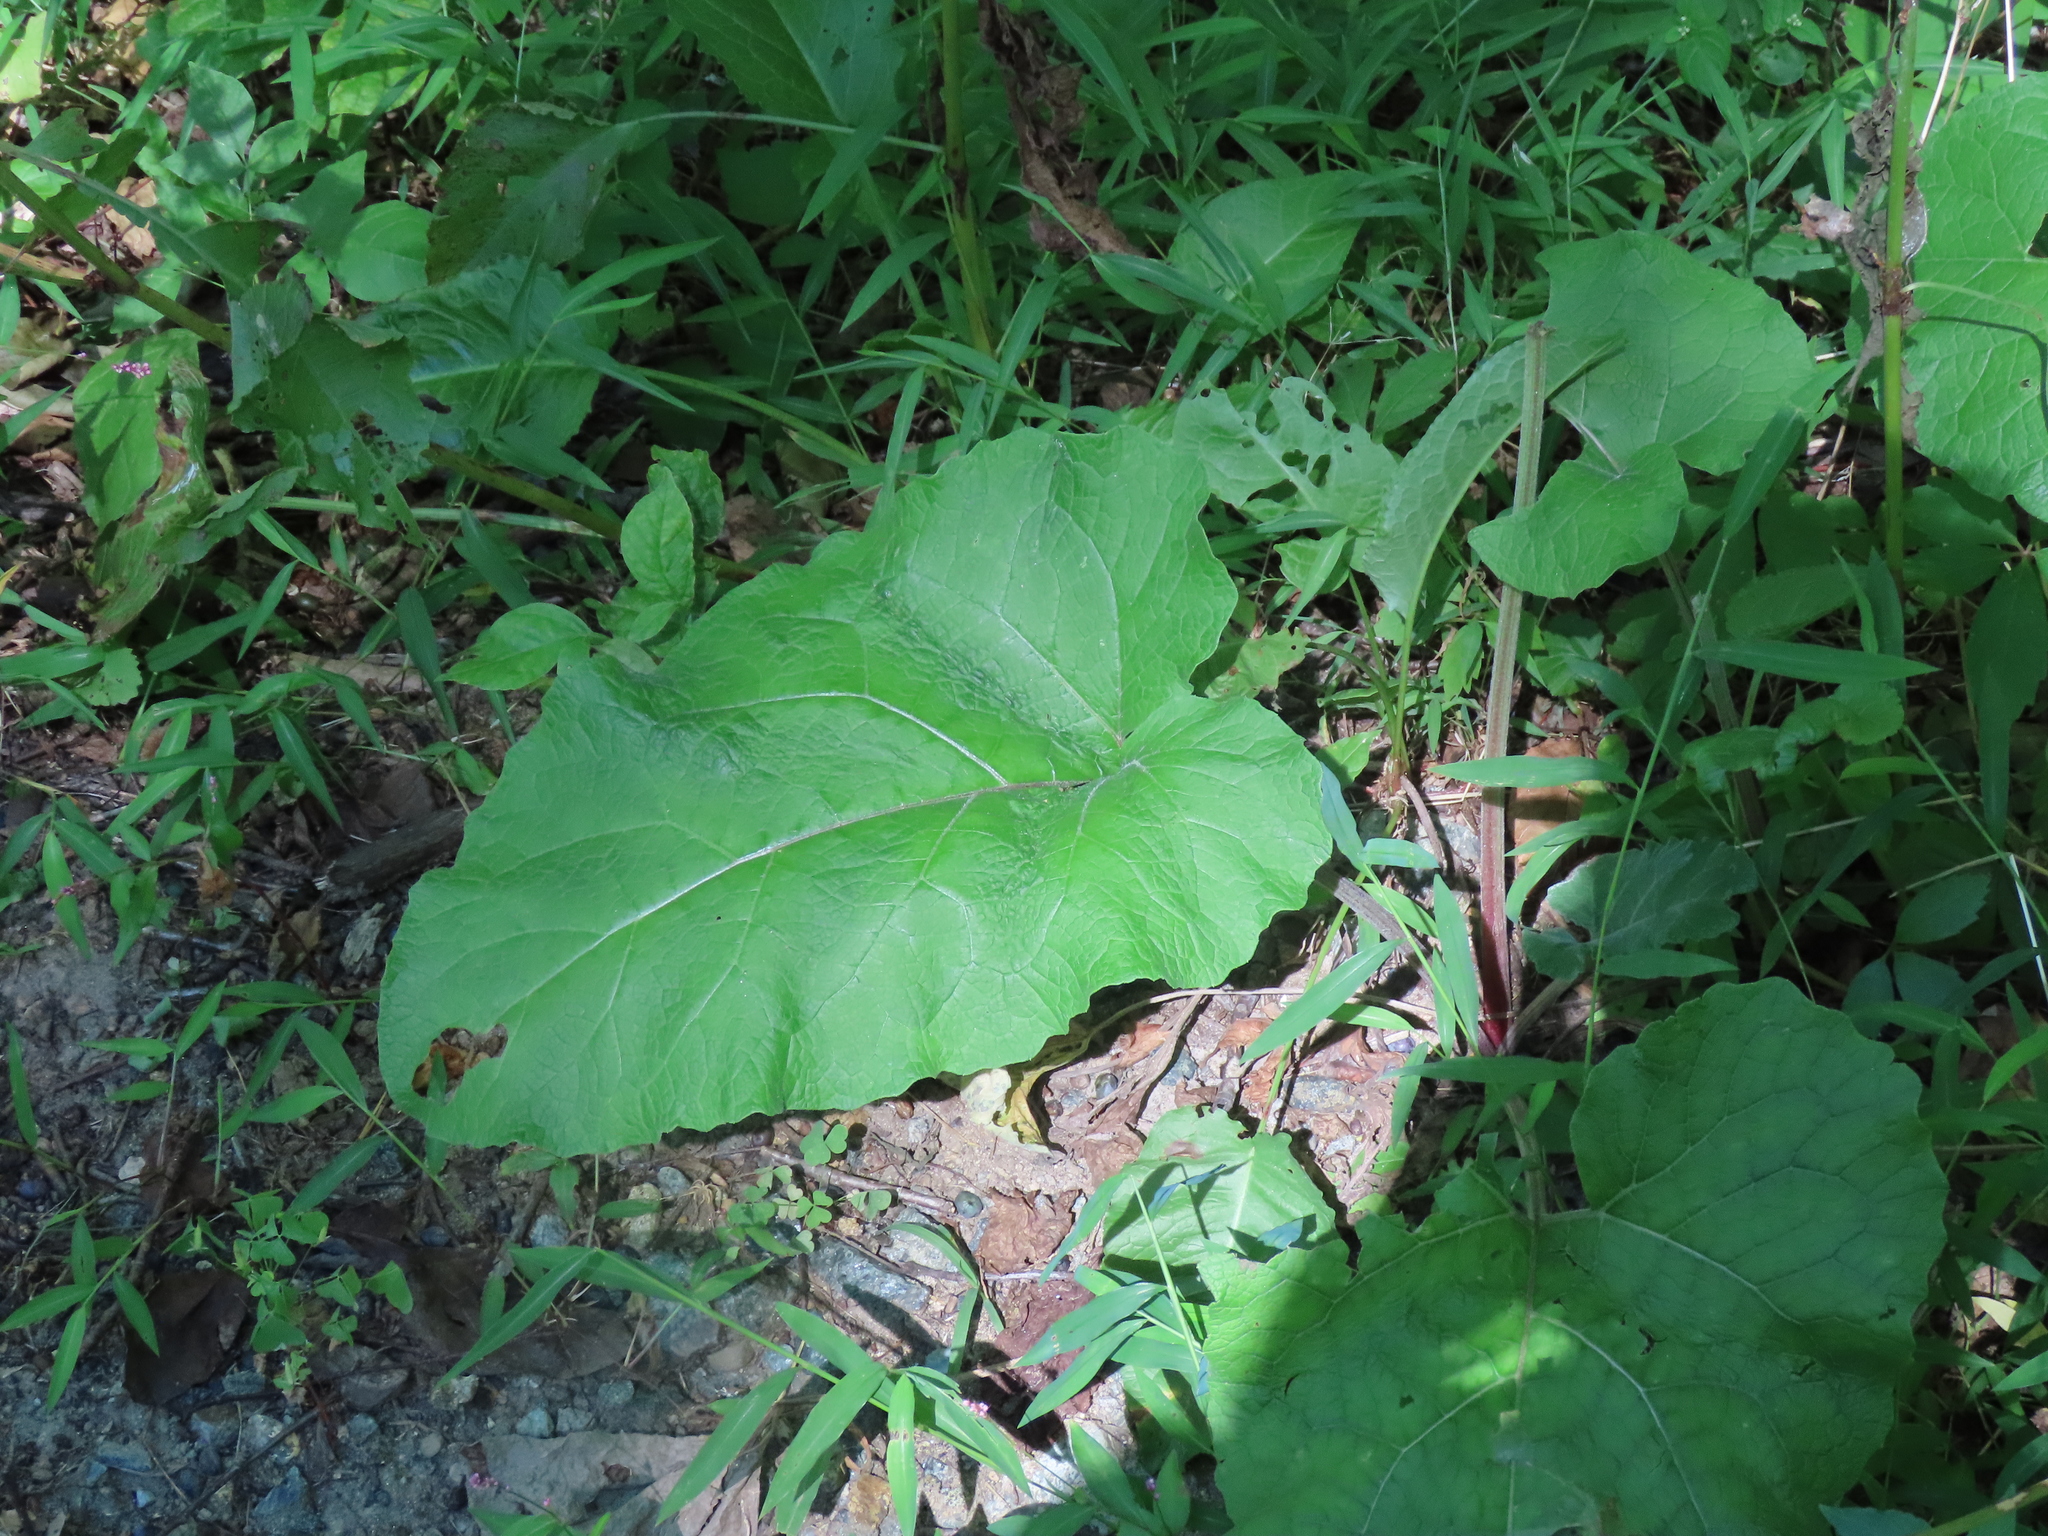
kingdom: Plantae
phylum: Tracheophyta
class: Magnoliopsida
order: Asterales
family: Asteraceae
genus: Arctium
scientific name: Arctium
